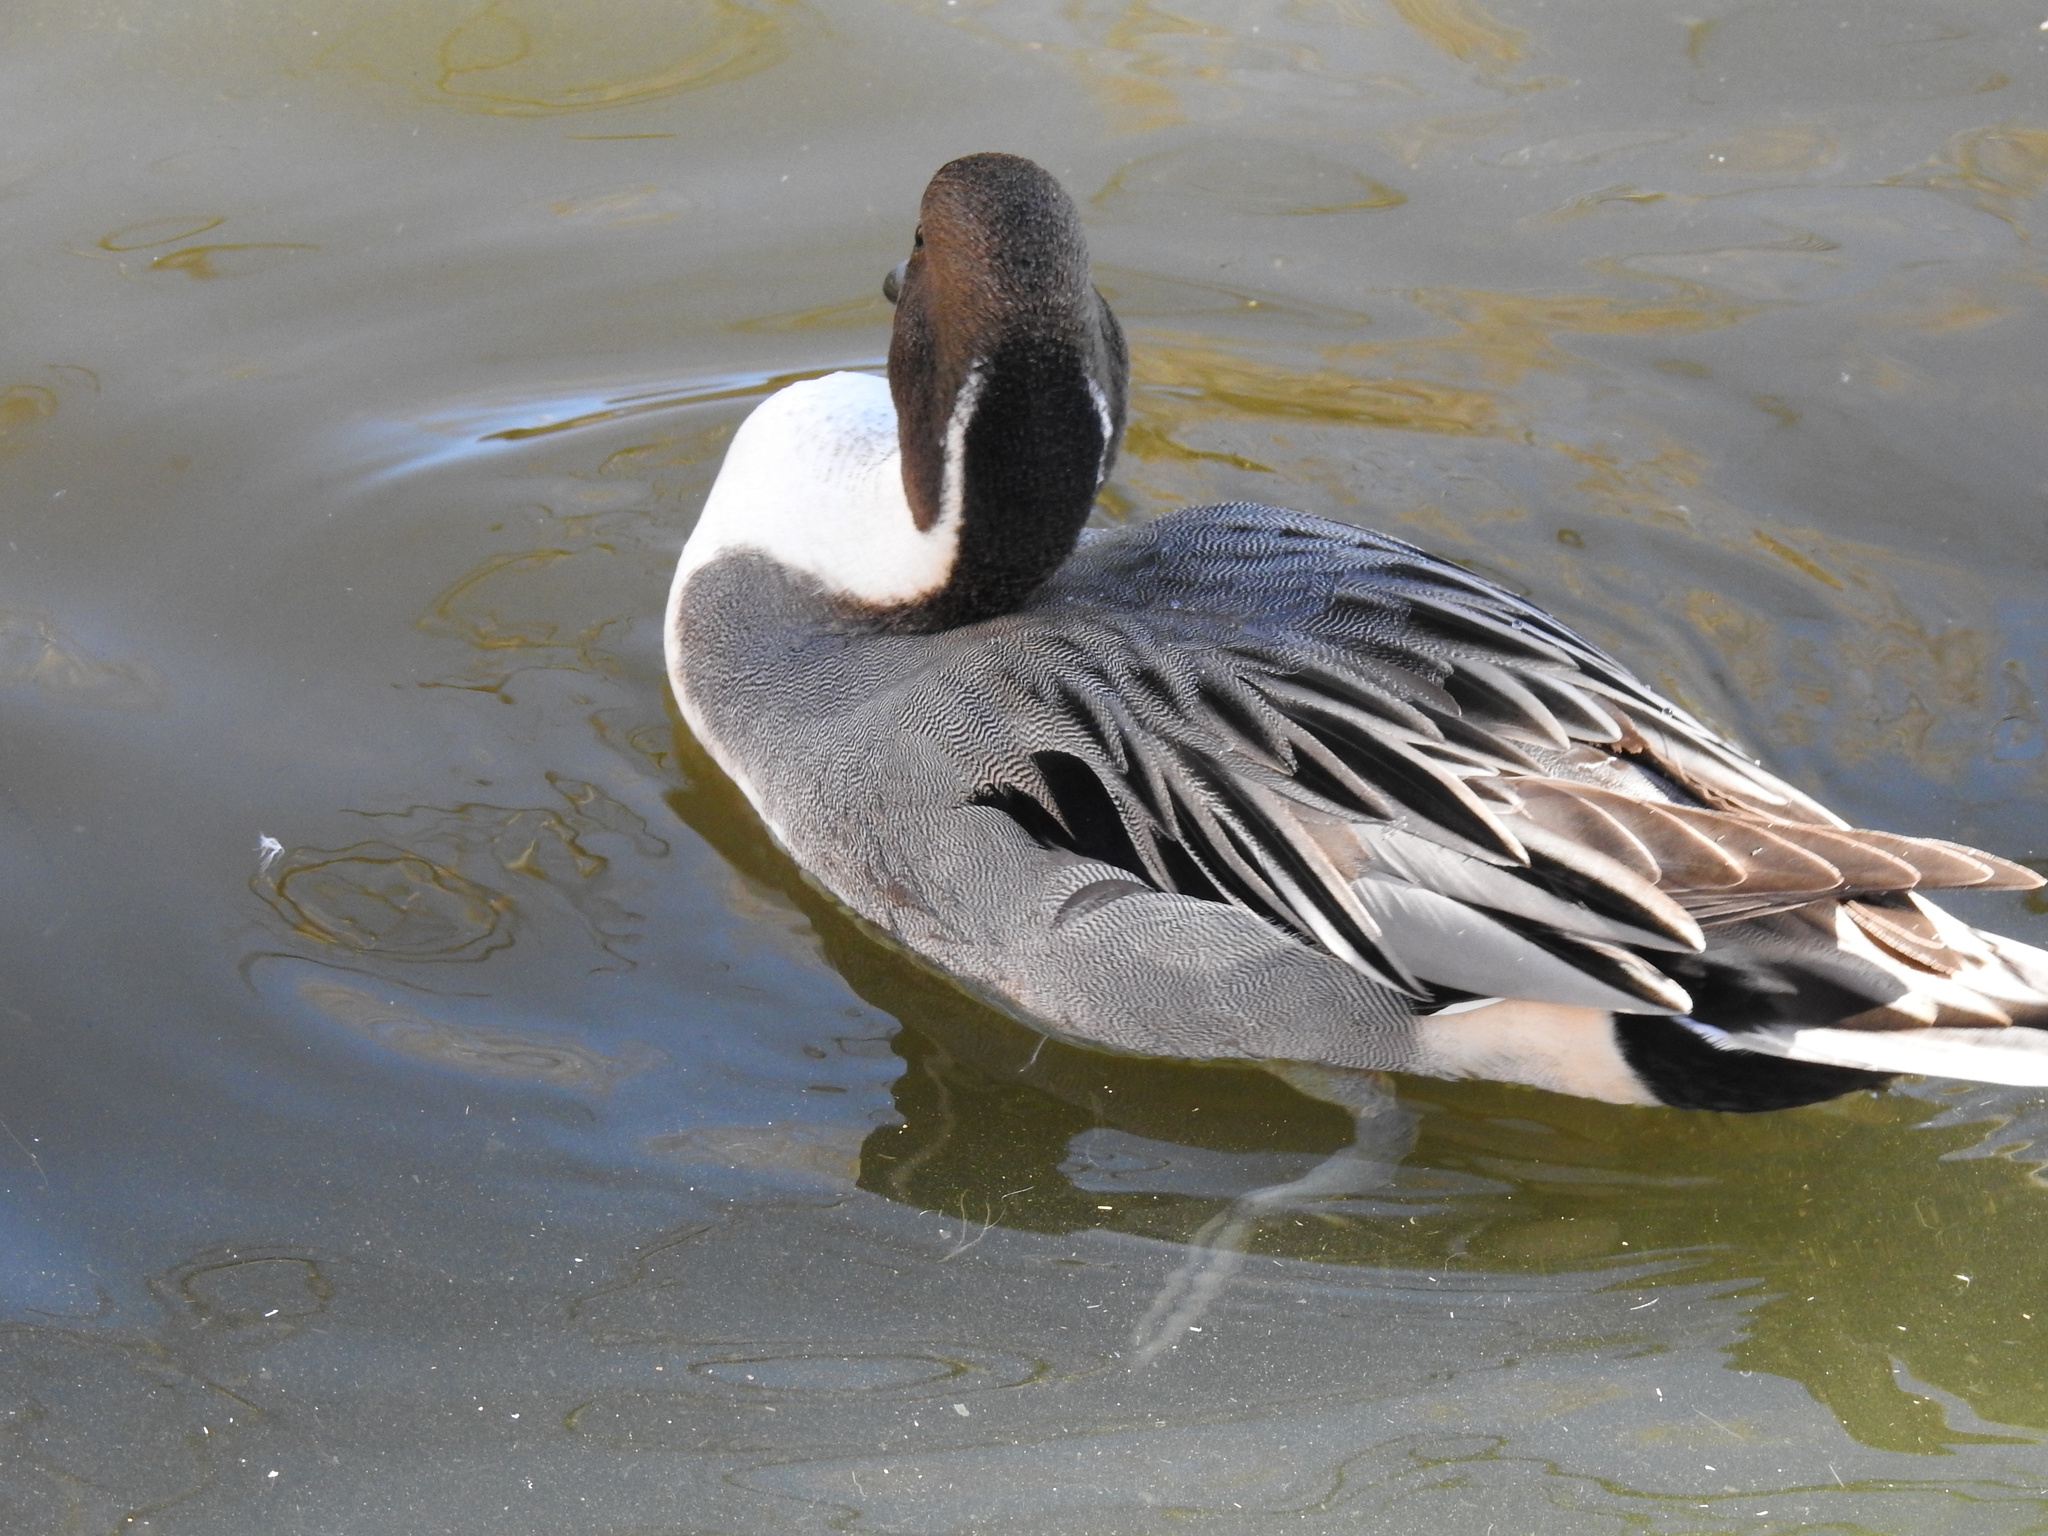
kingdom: Animalia
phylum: Chordata
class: Aves
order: Anseriformes
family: Anatidae
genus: Anas
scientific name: Anas acuta
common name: Northern pintail
